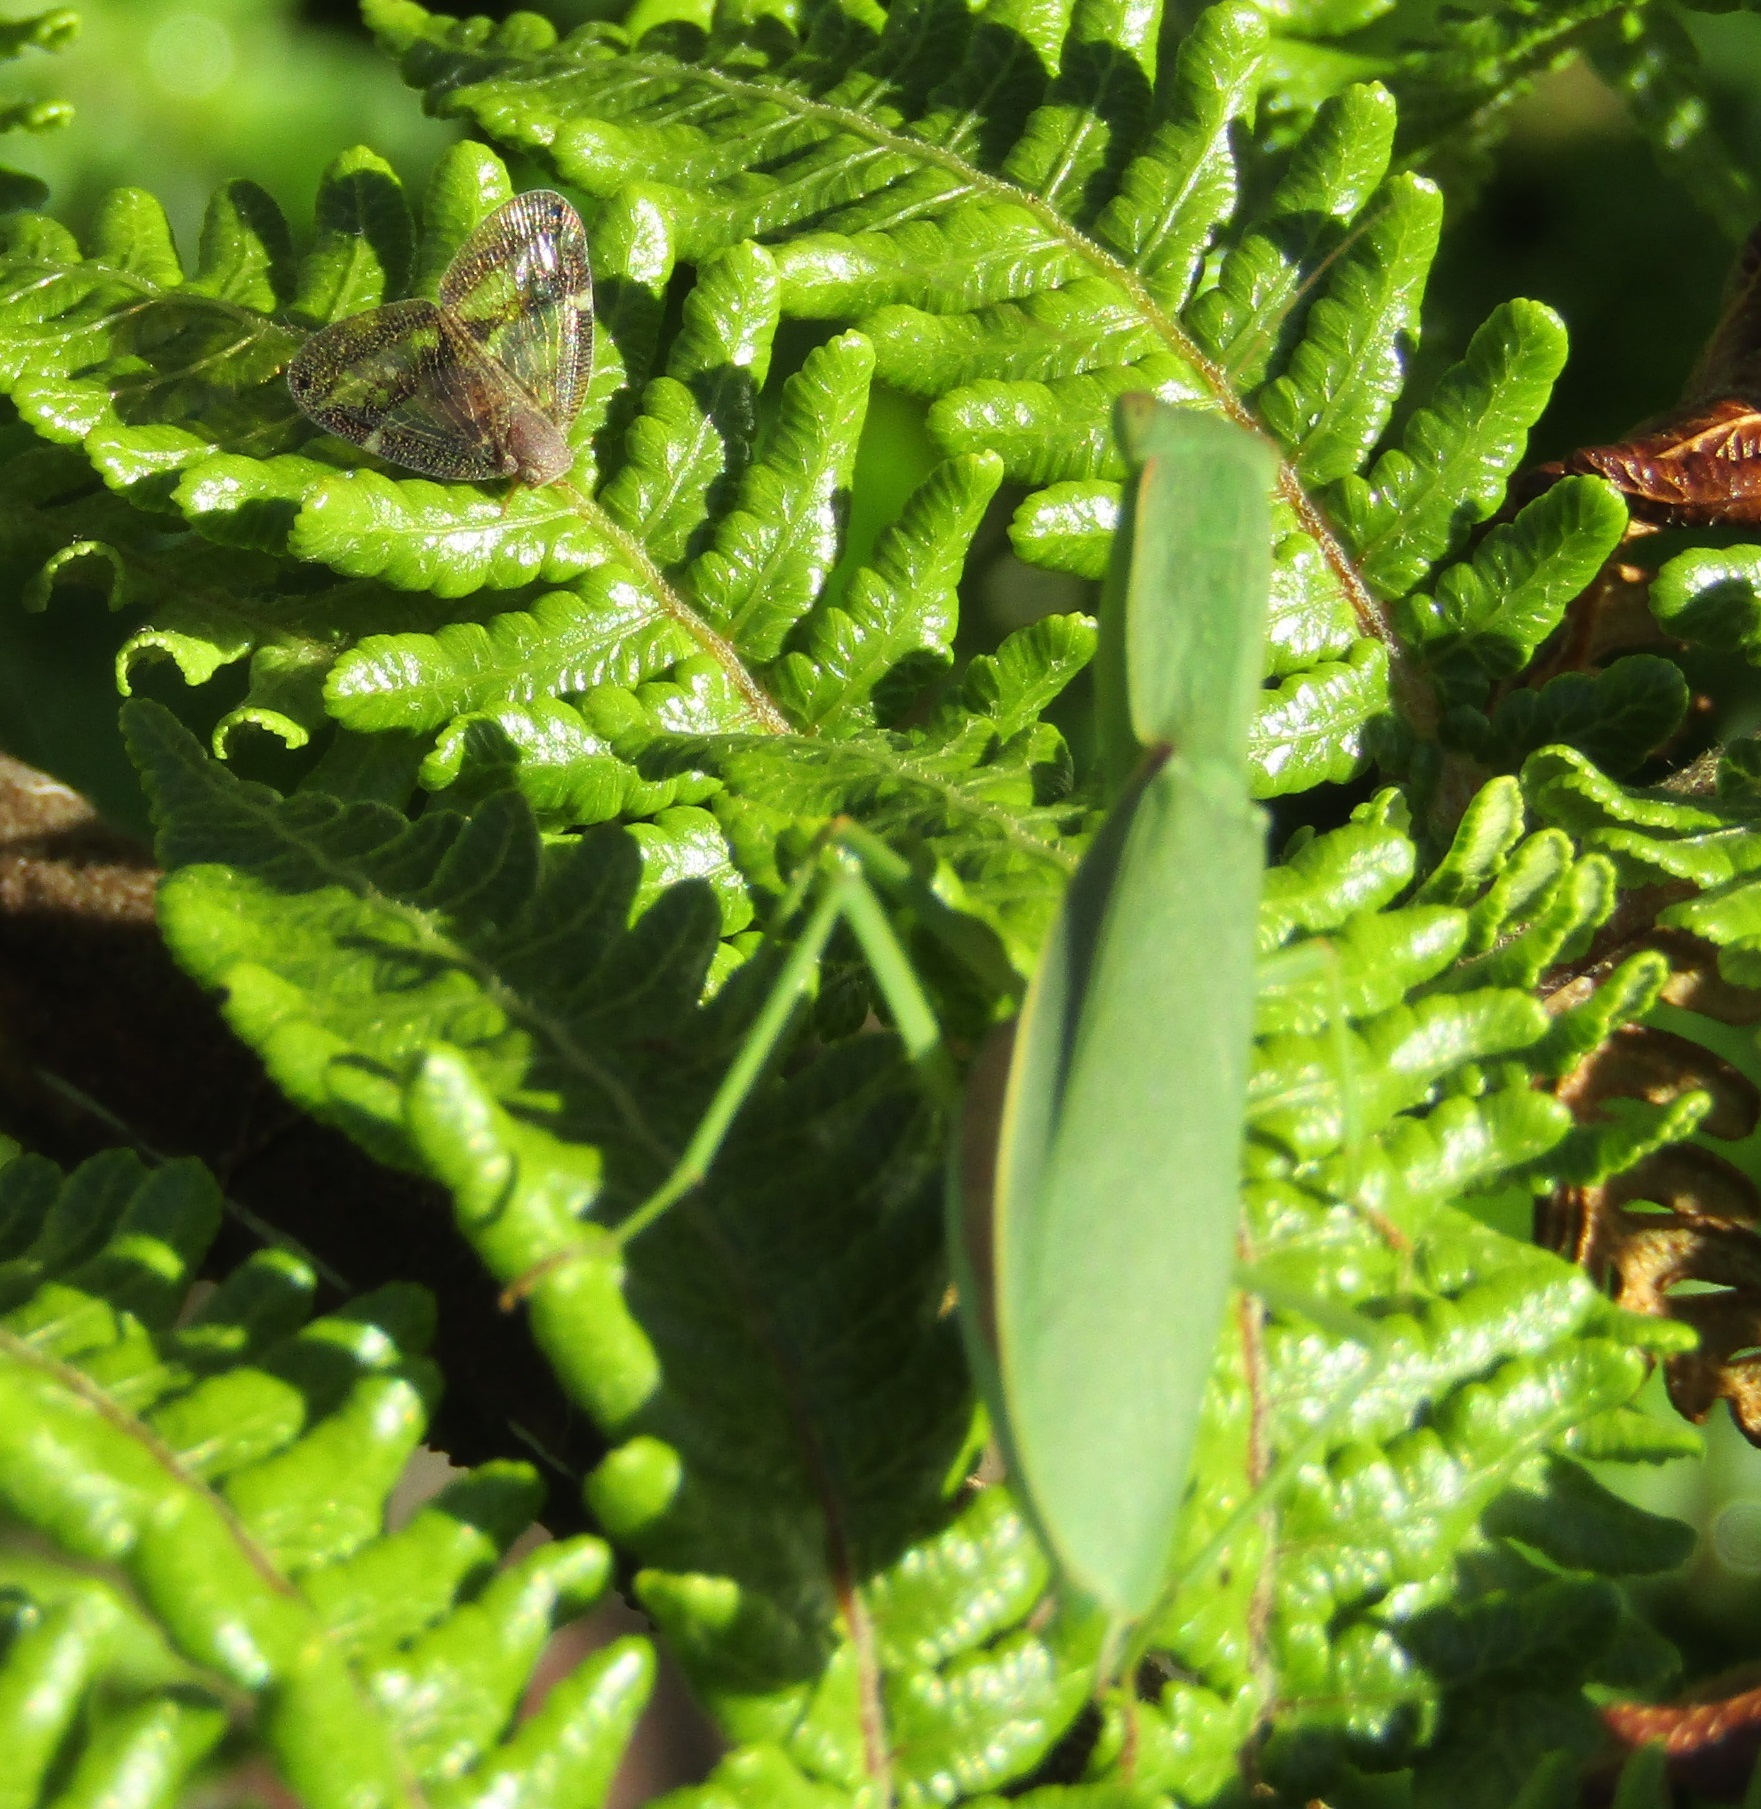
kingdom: Animalia
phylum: Arthropoda
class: Insecta
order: Hemiptera
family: Ricaniidae
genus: Scolypopa
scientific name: Scolypopa australis
